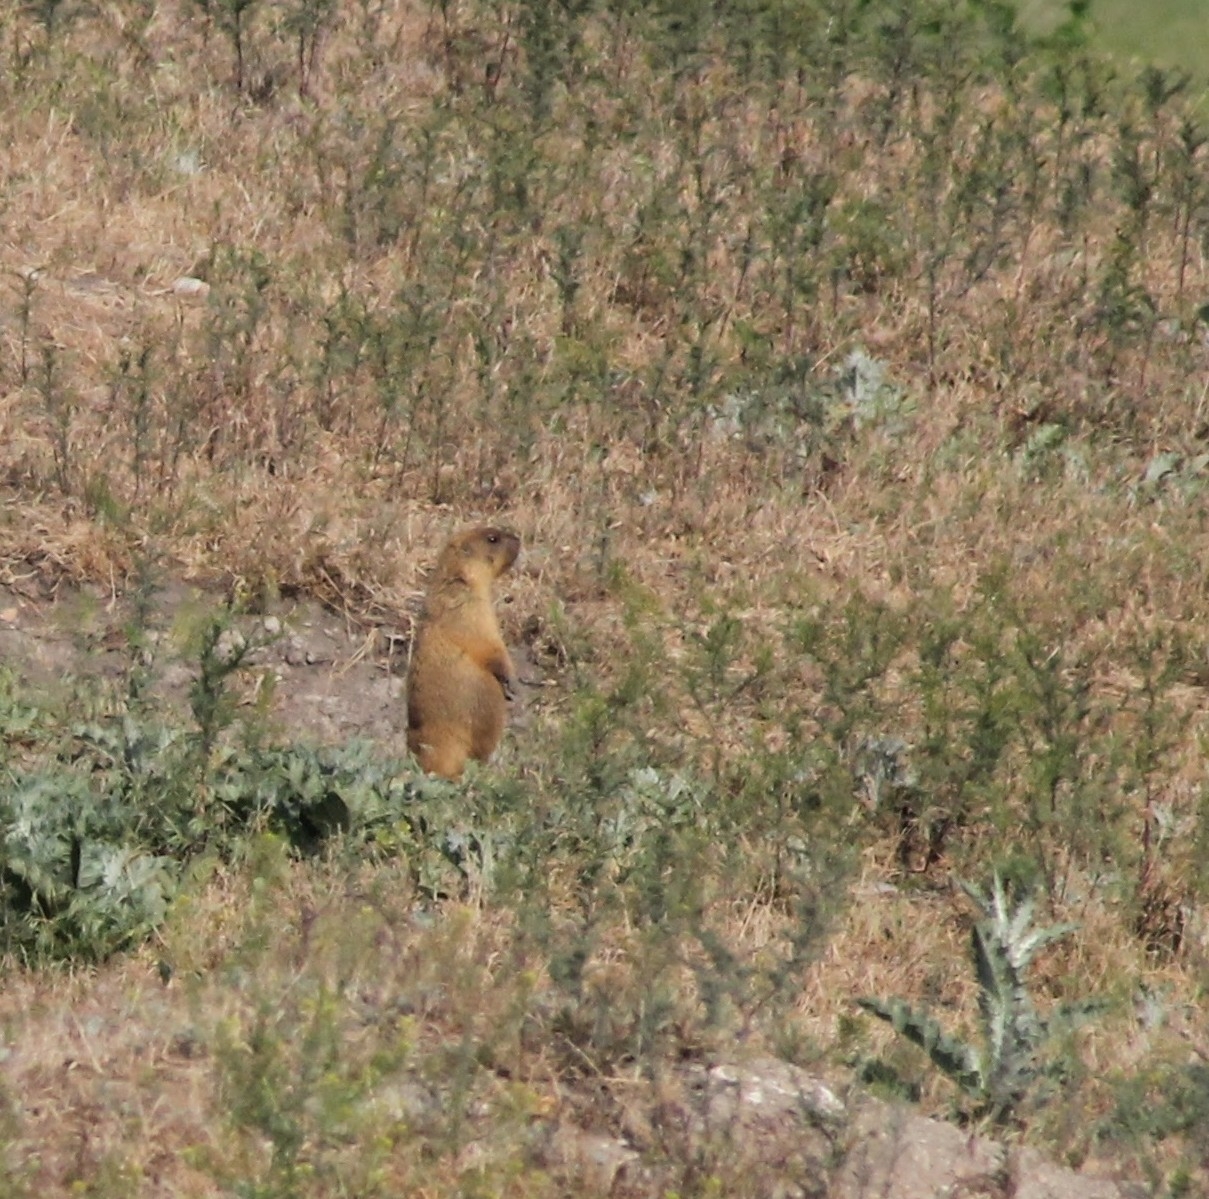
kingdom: Animalia
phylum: Chordata
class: Mammalia
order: Rodentia
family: Sciuridae
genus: Marmota
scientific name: Marmota bobak
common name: Bobak marmot
